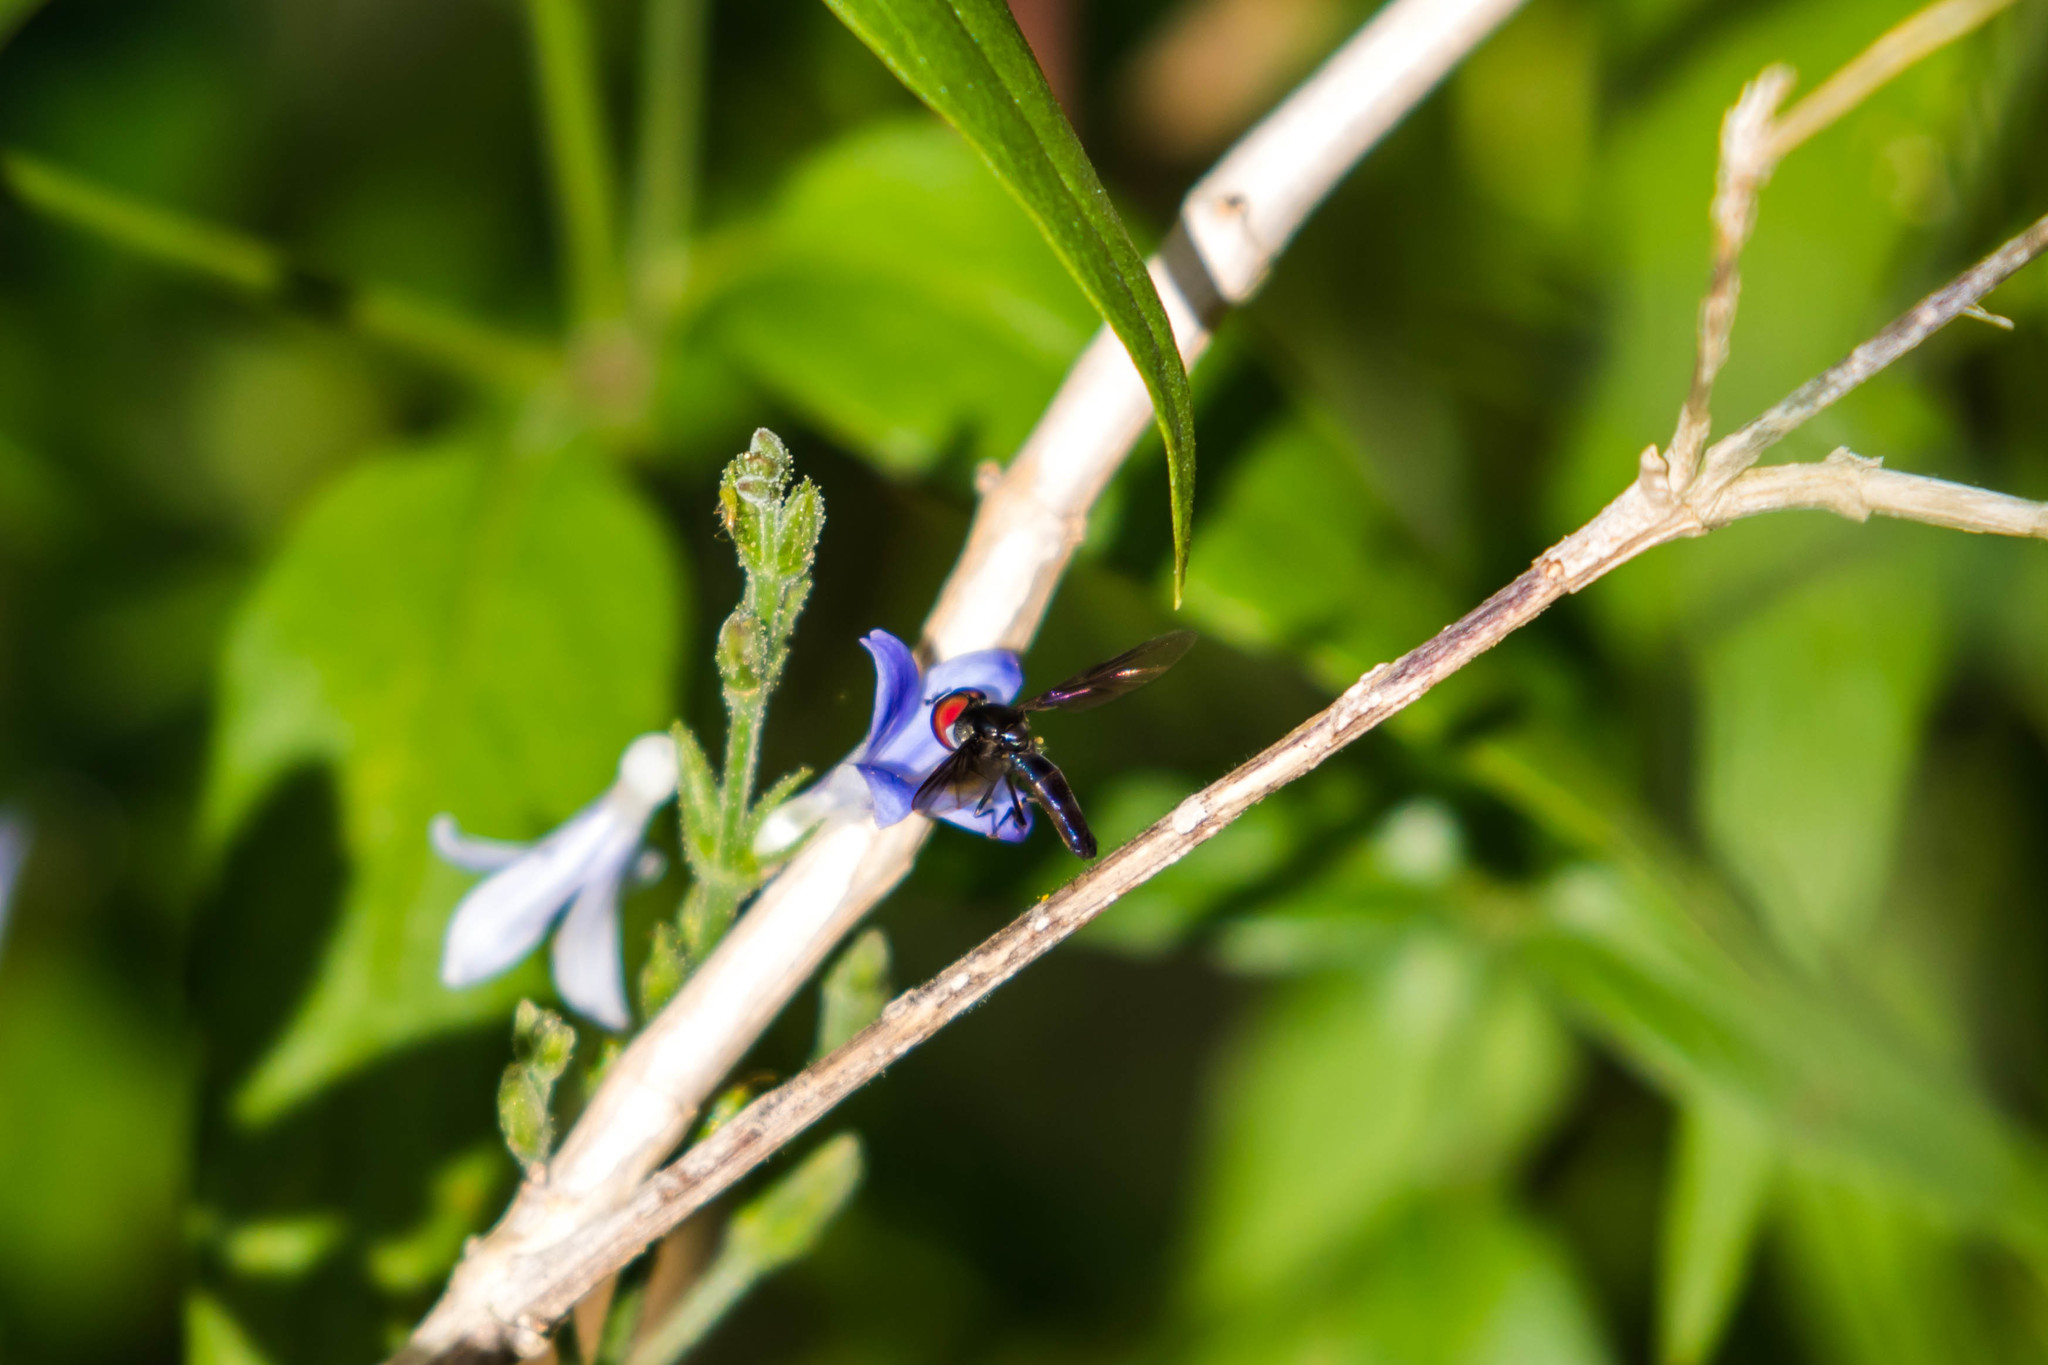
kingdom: Animalia
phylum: Arthropoda
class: Insecta
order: Diptera
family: Syrphidae
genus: Ocyptamus
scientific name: Ocyptamus dimidiatus
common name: Syrphid fly
